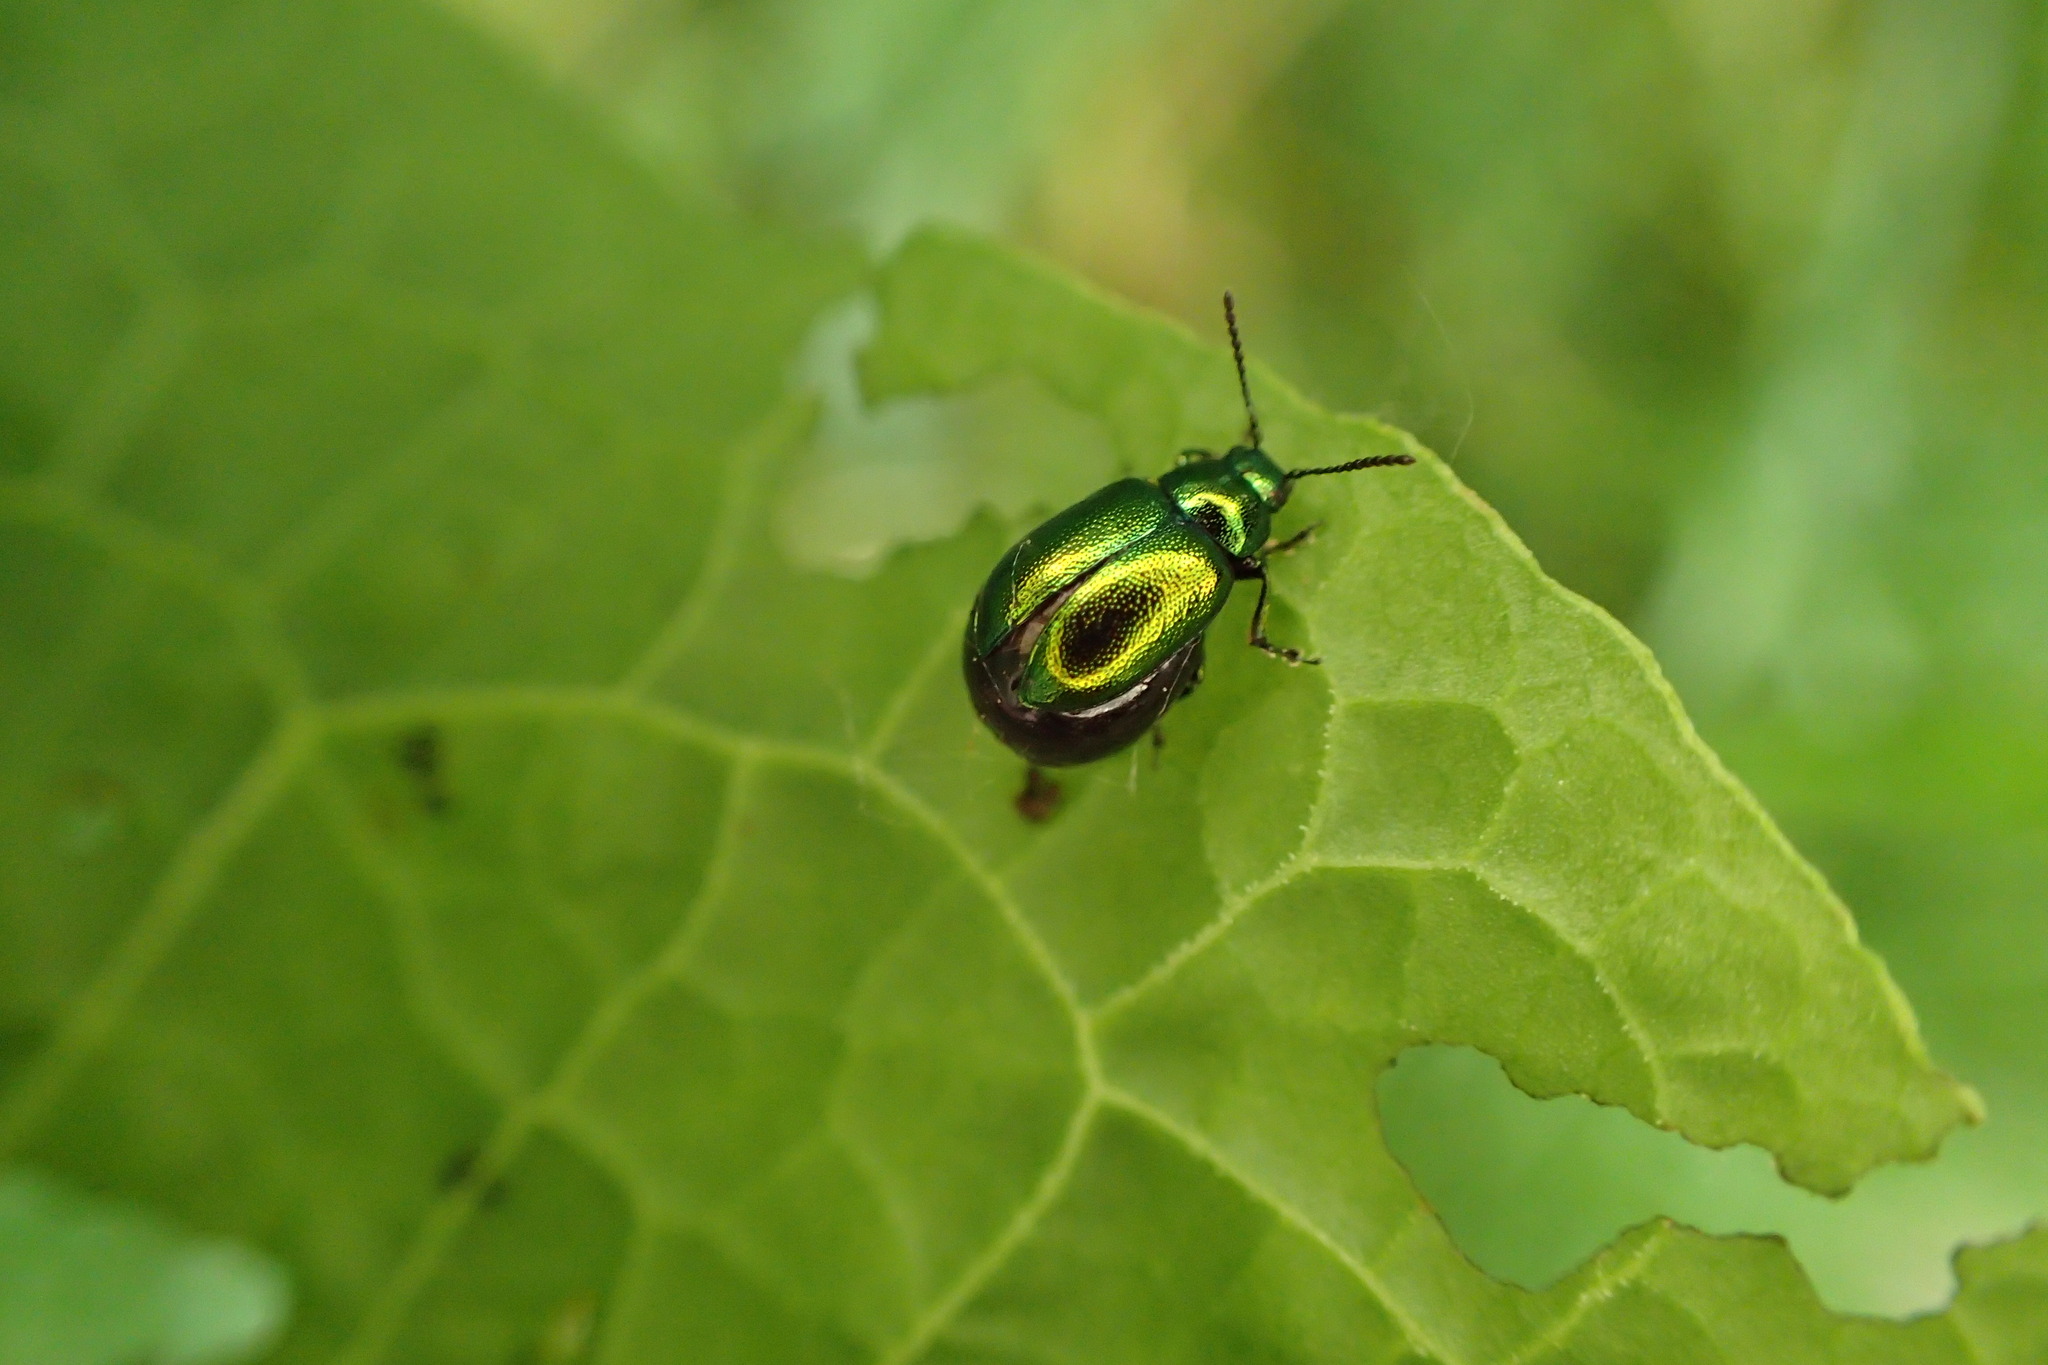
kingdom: Animalia
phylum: Arthropoda
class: Insecta
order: Coleoptera
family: Chrysomelidae
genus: Gastrophysa
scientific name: Gastrophysa viridula
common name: Green dock beetle
